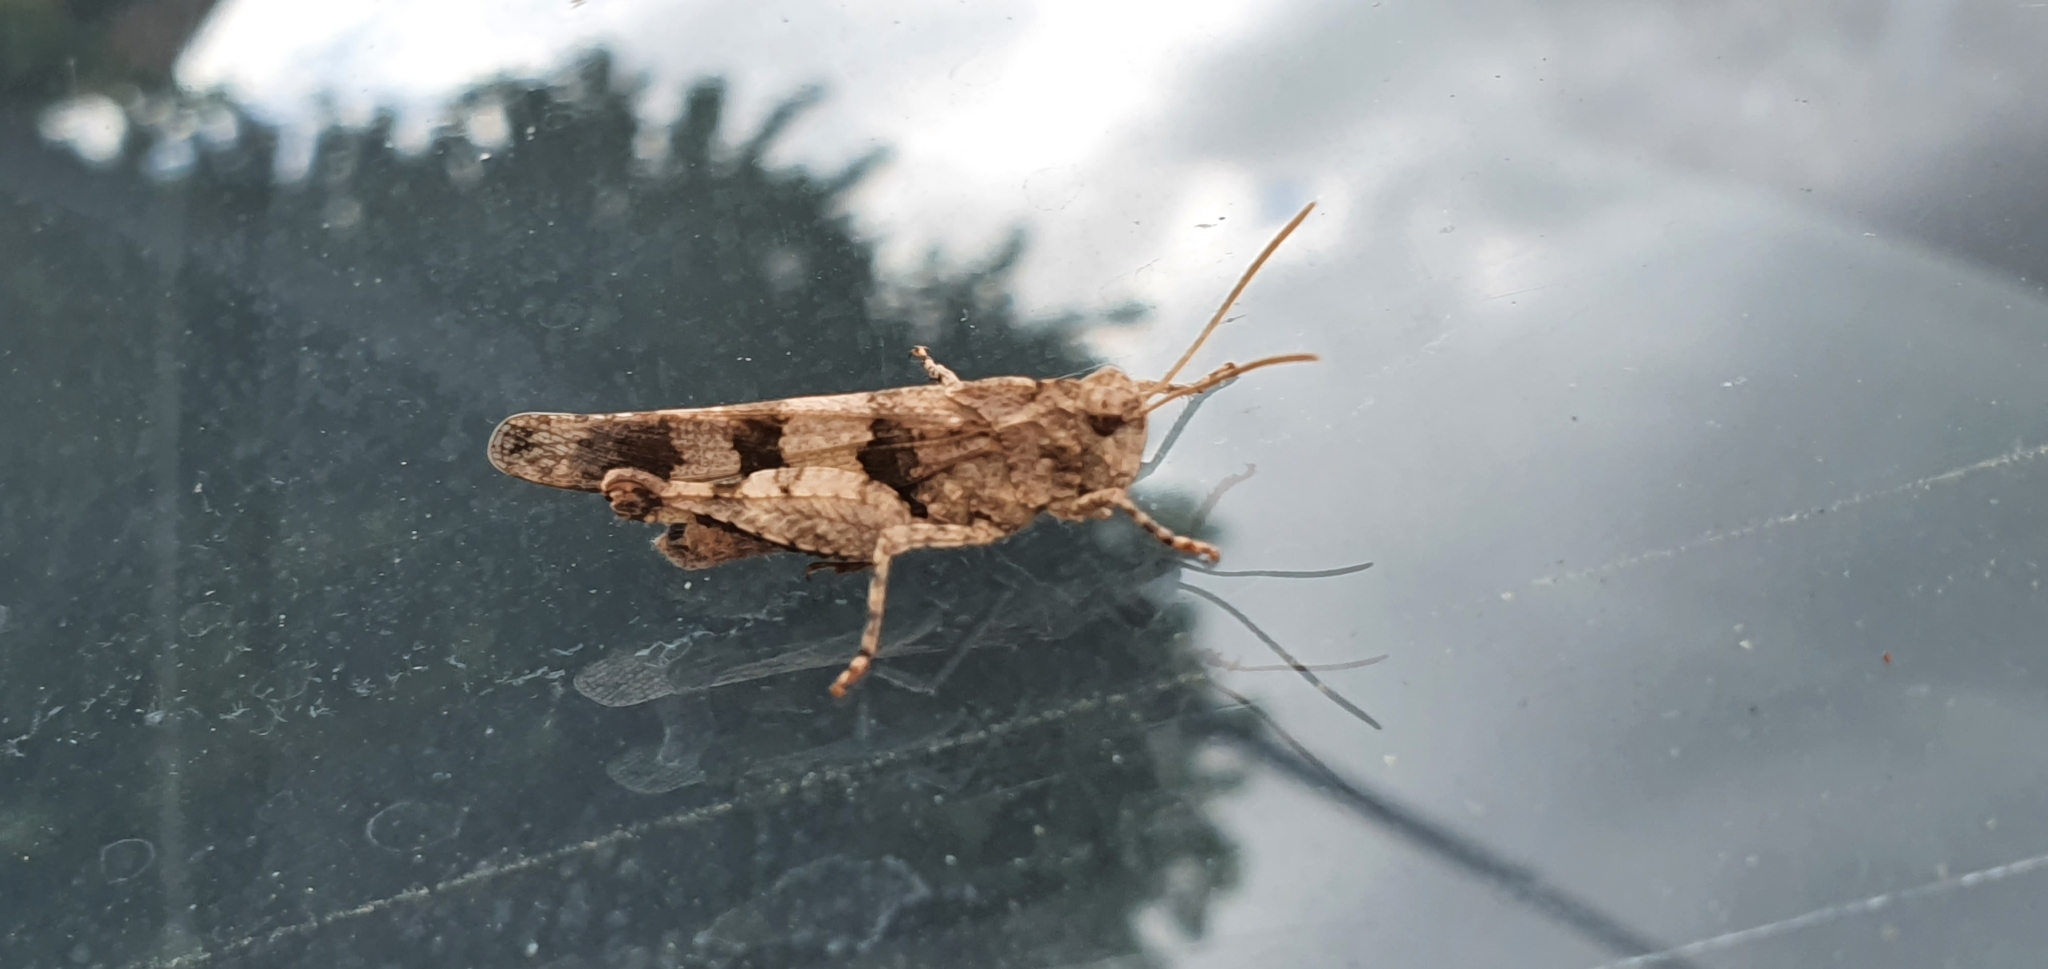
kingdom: Animalia
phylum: Arthropoda
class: Insecta
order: Orthoptera
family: Acrididae
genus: Oedipoda
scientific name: Oedipoda caerulescens
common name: Blue-winged grasshopper
